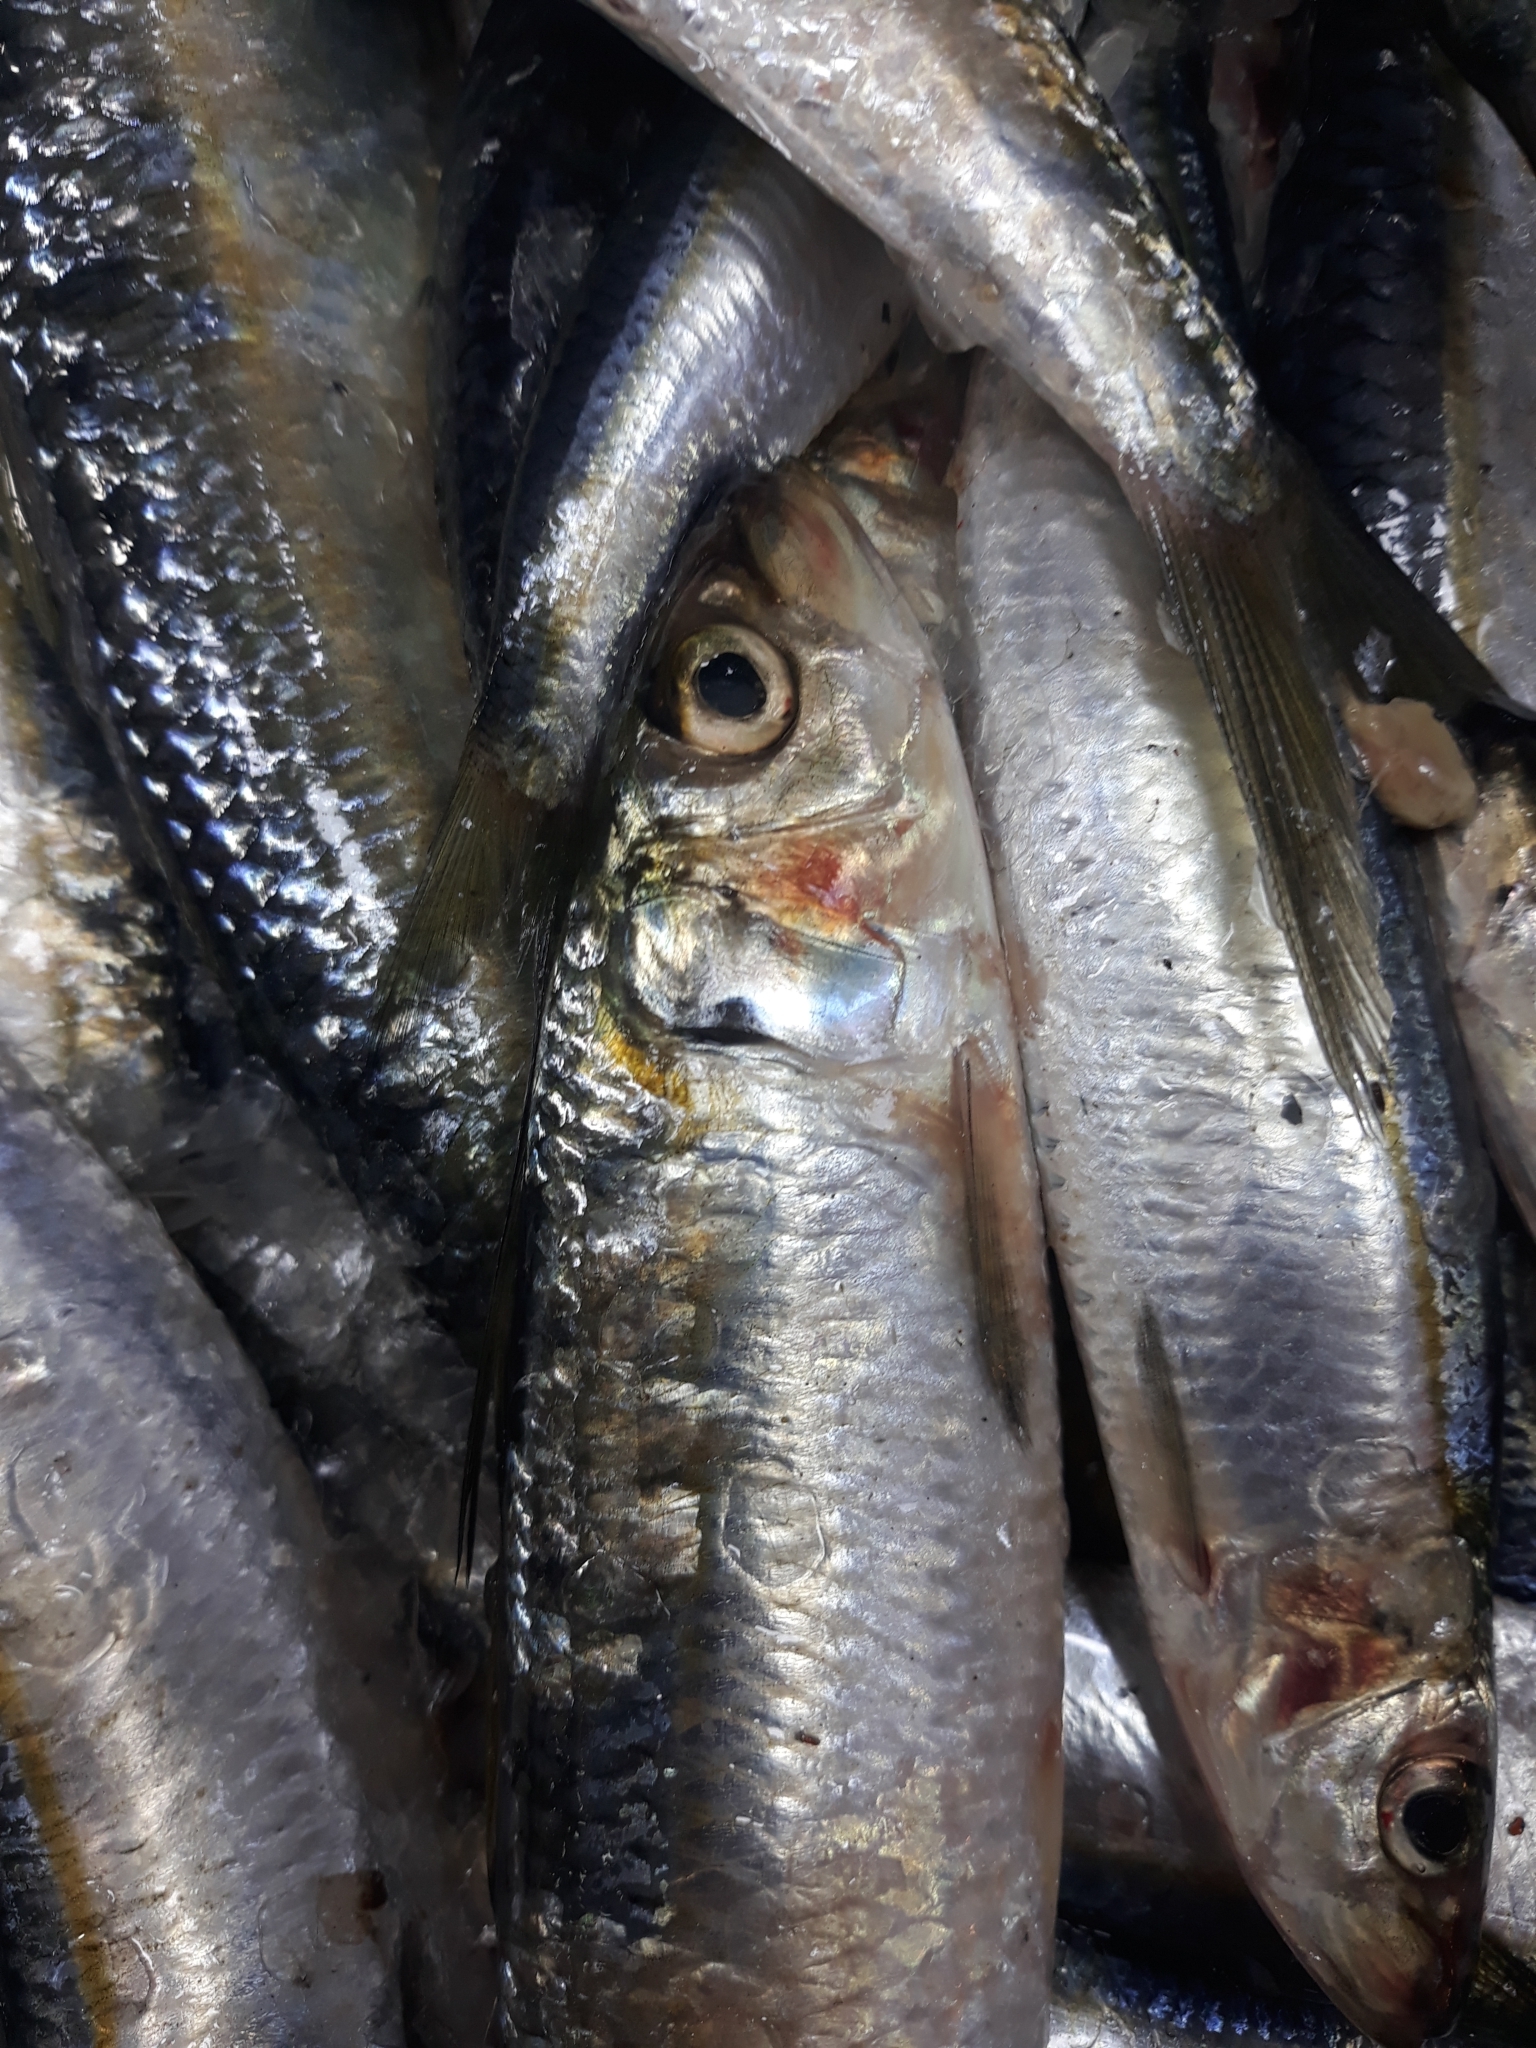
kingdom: Animalia
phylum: Chordata
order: Clupeiformes
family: Clupeidae
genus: Sardinella
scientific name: Sardinella aurita
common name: Round sardinella
